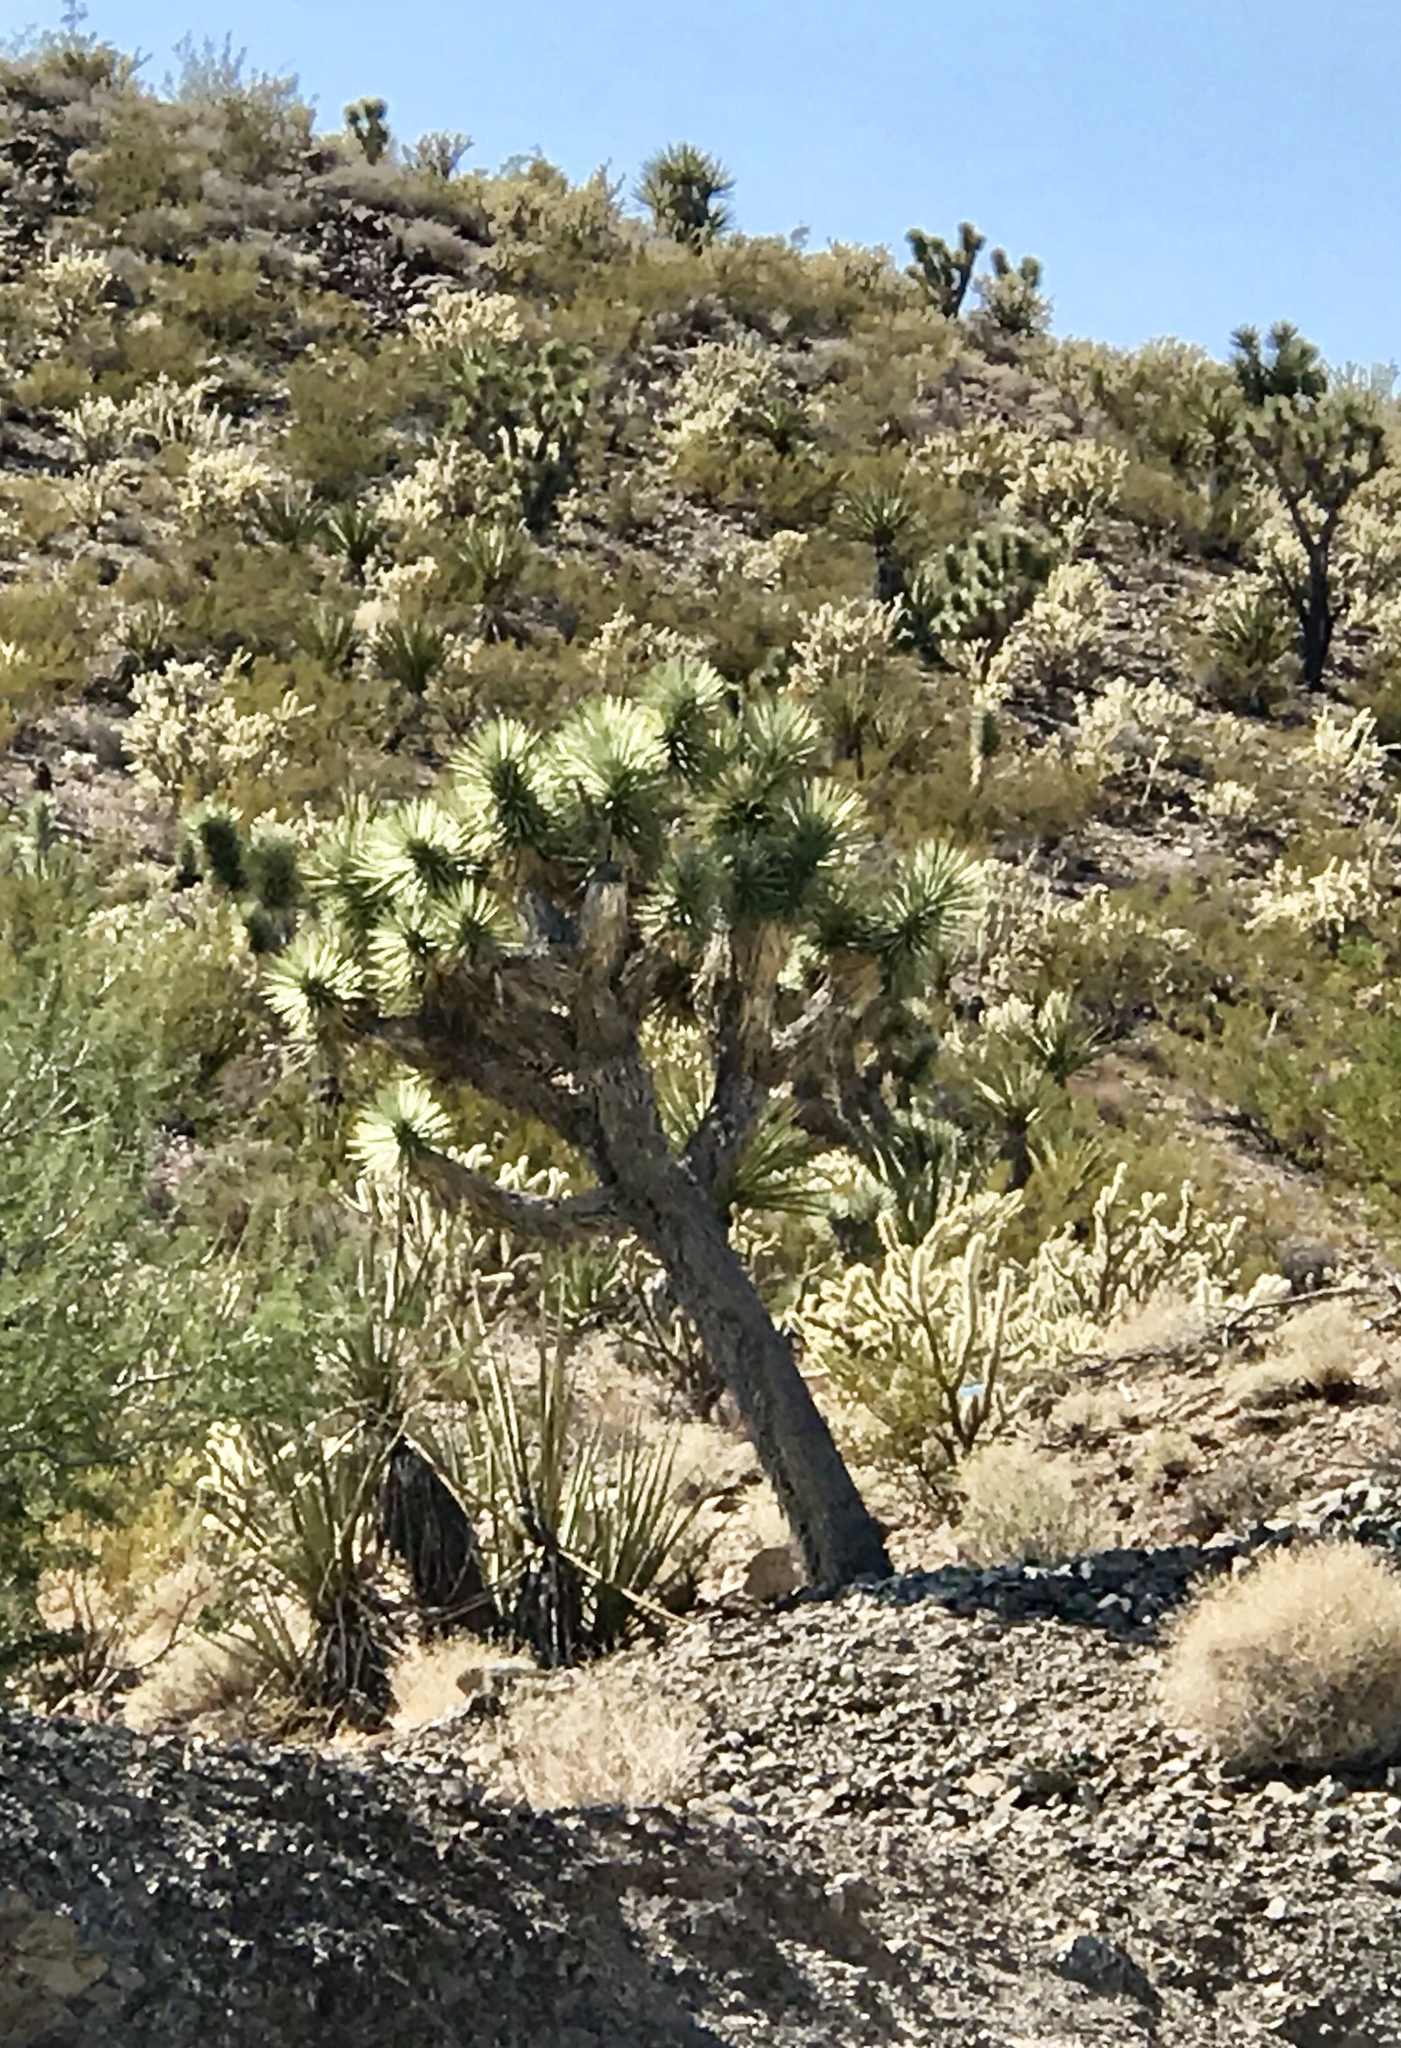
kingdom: Plantae
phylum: Tracheophyta
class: Liliopsida
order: Asparagales
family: Asparagaceae
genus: Yucca
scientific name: Yucca brevifolia
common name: Joshua tree
